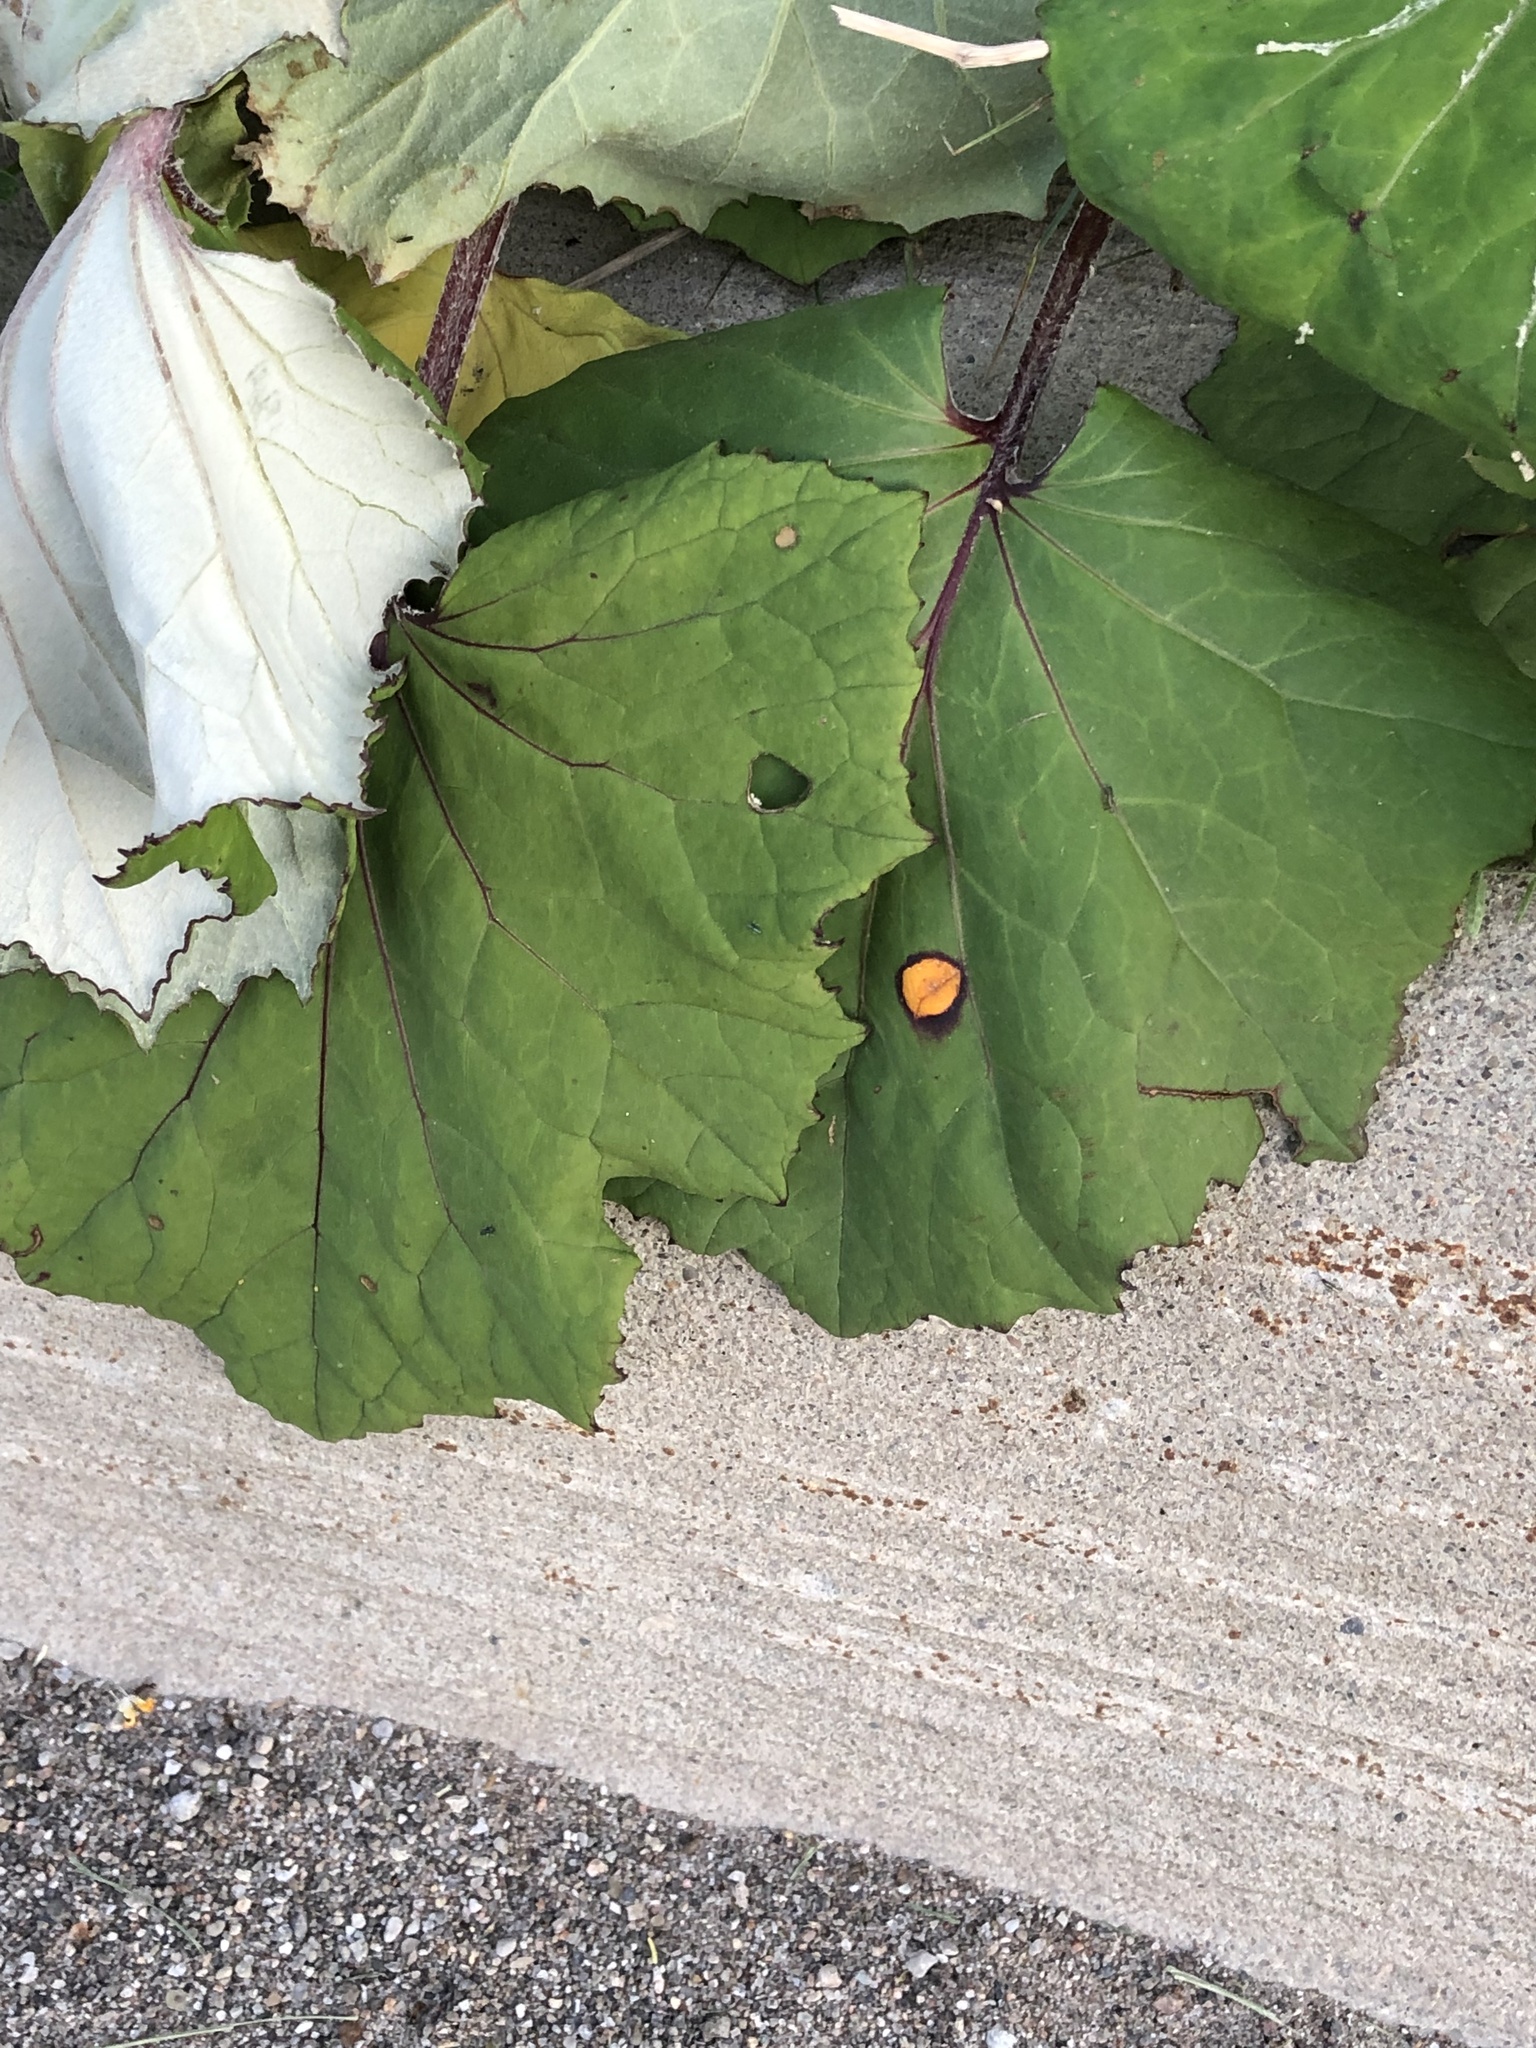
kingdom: Plantae
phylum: Tracheophyta
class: Magnoliopsida
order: Asterales
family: Asteraceae
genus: Tussilago
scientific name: Tussilago farfara
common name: Coltsfoot
